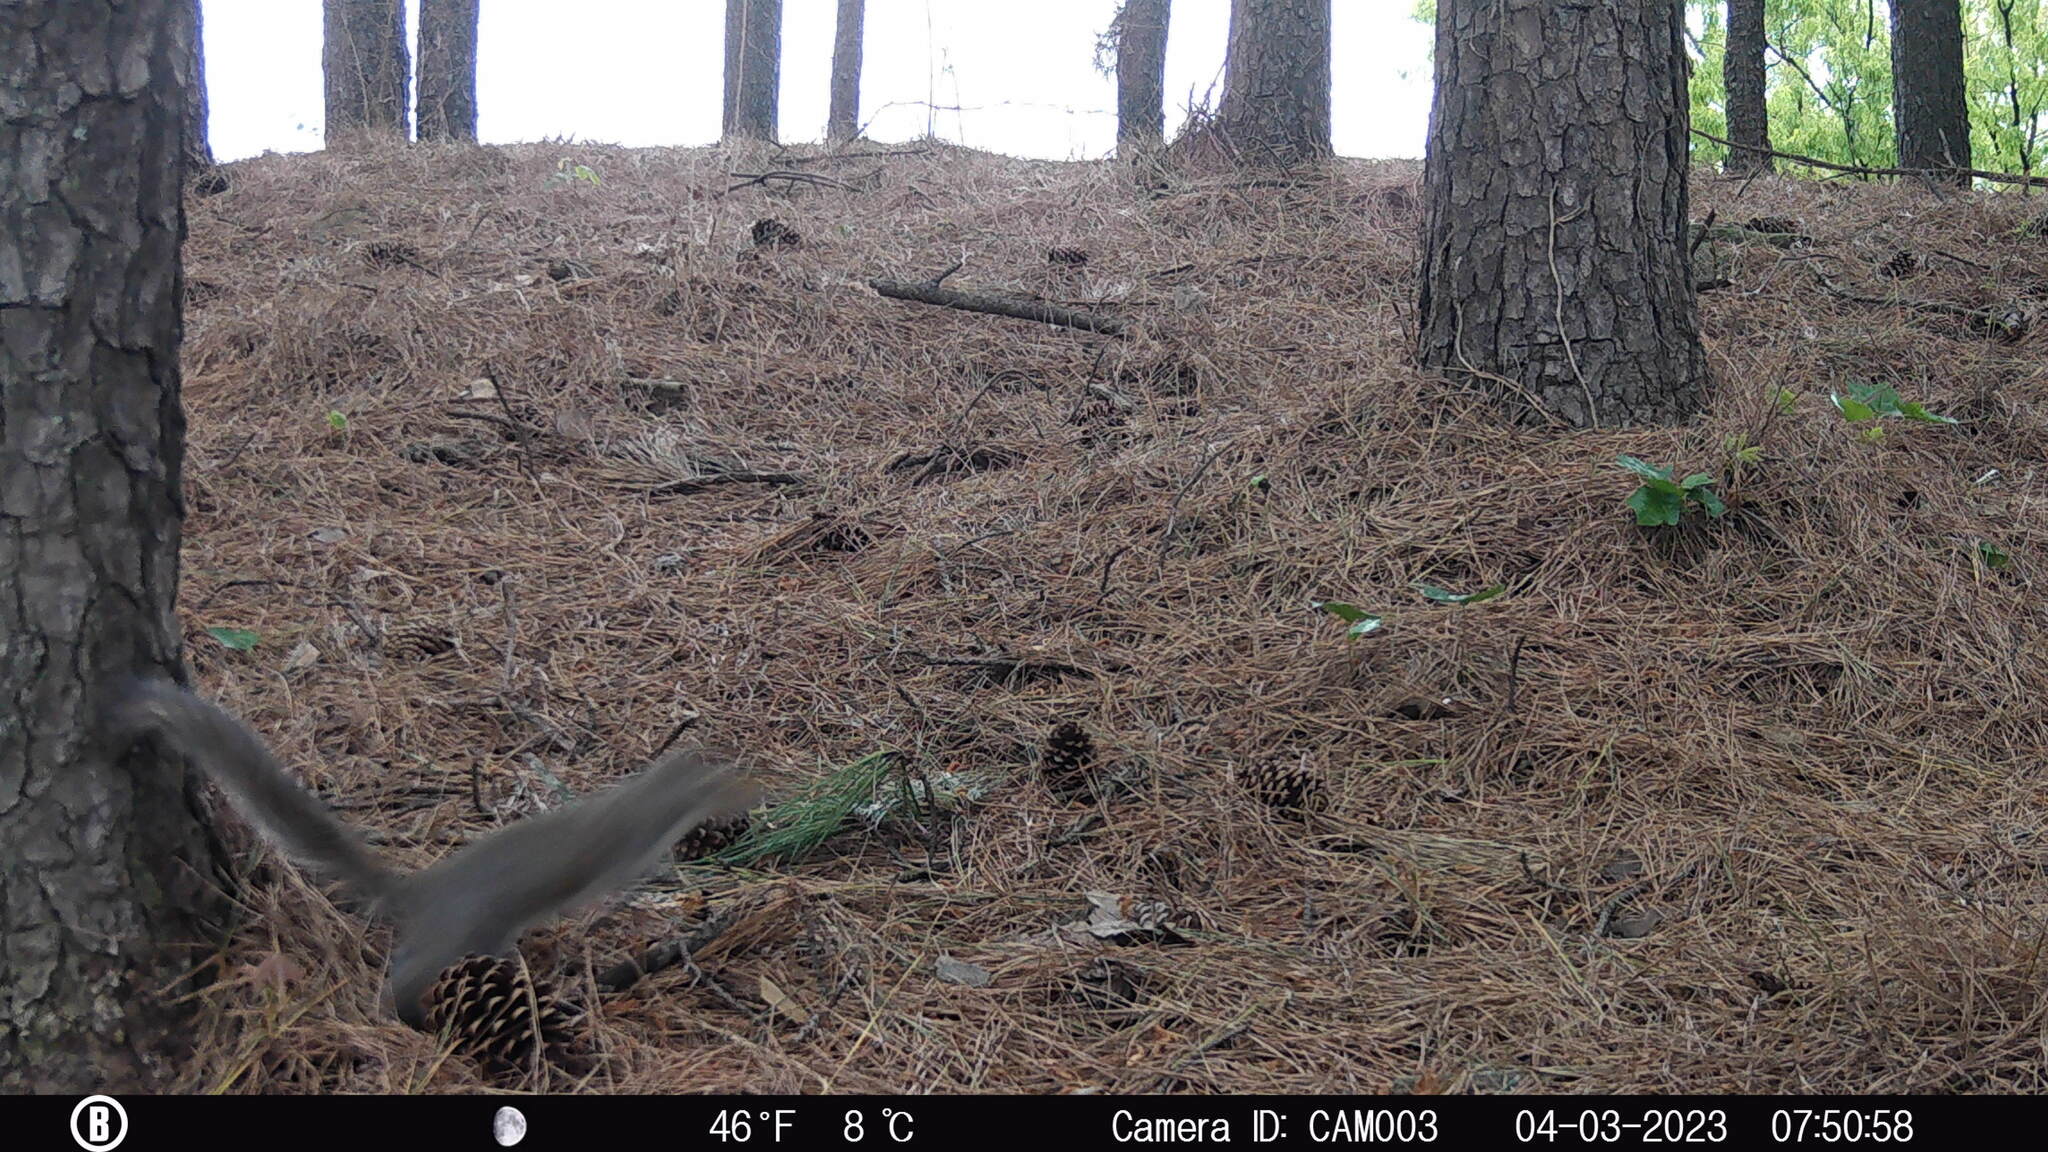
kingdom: Animalia
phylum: Chordata
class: Mammalia
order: Rodentia
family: Sciuridae
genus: Sciurus
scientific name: Sciurus carolinensis
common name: Eastern gray squirrel
